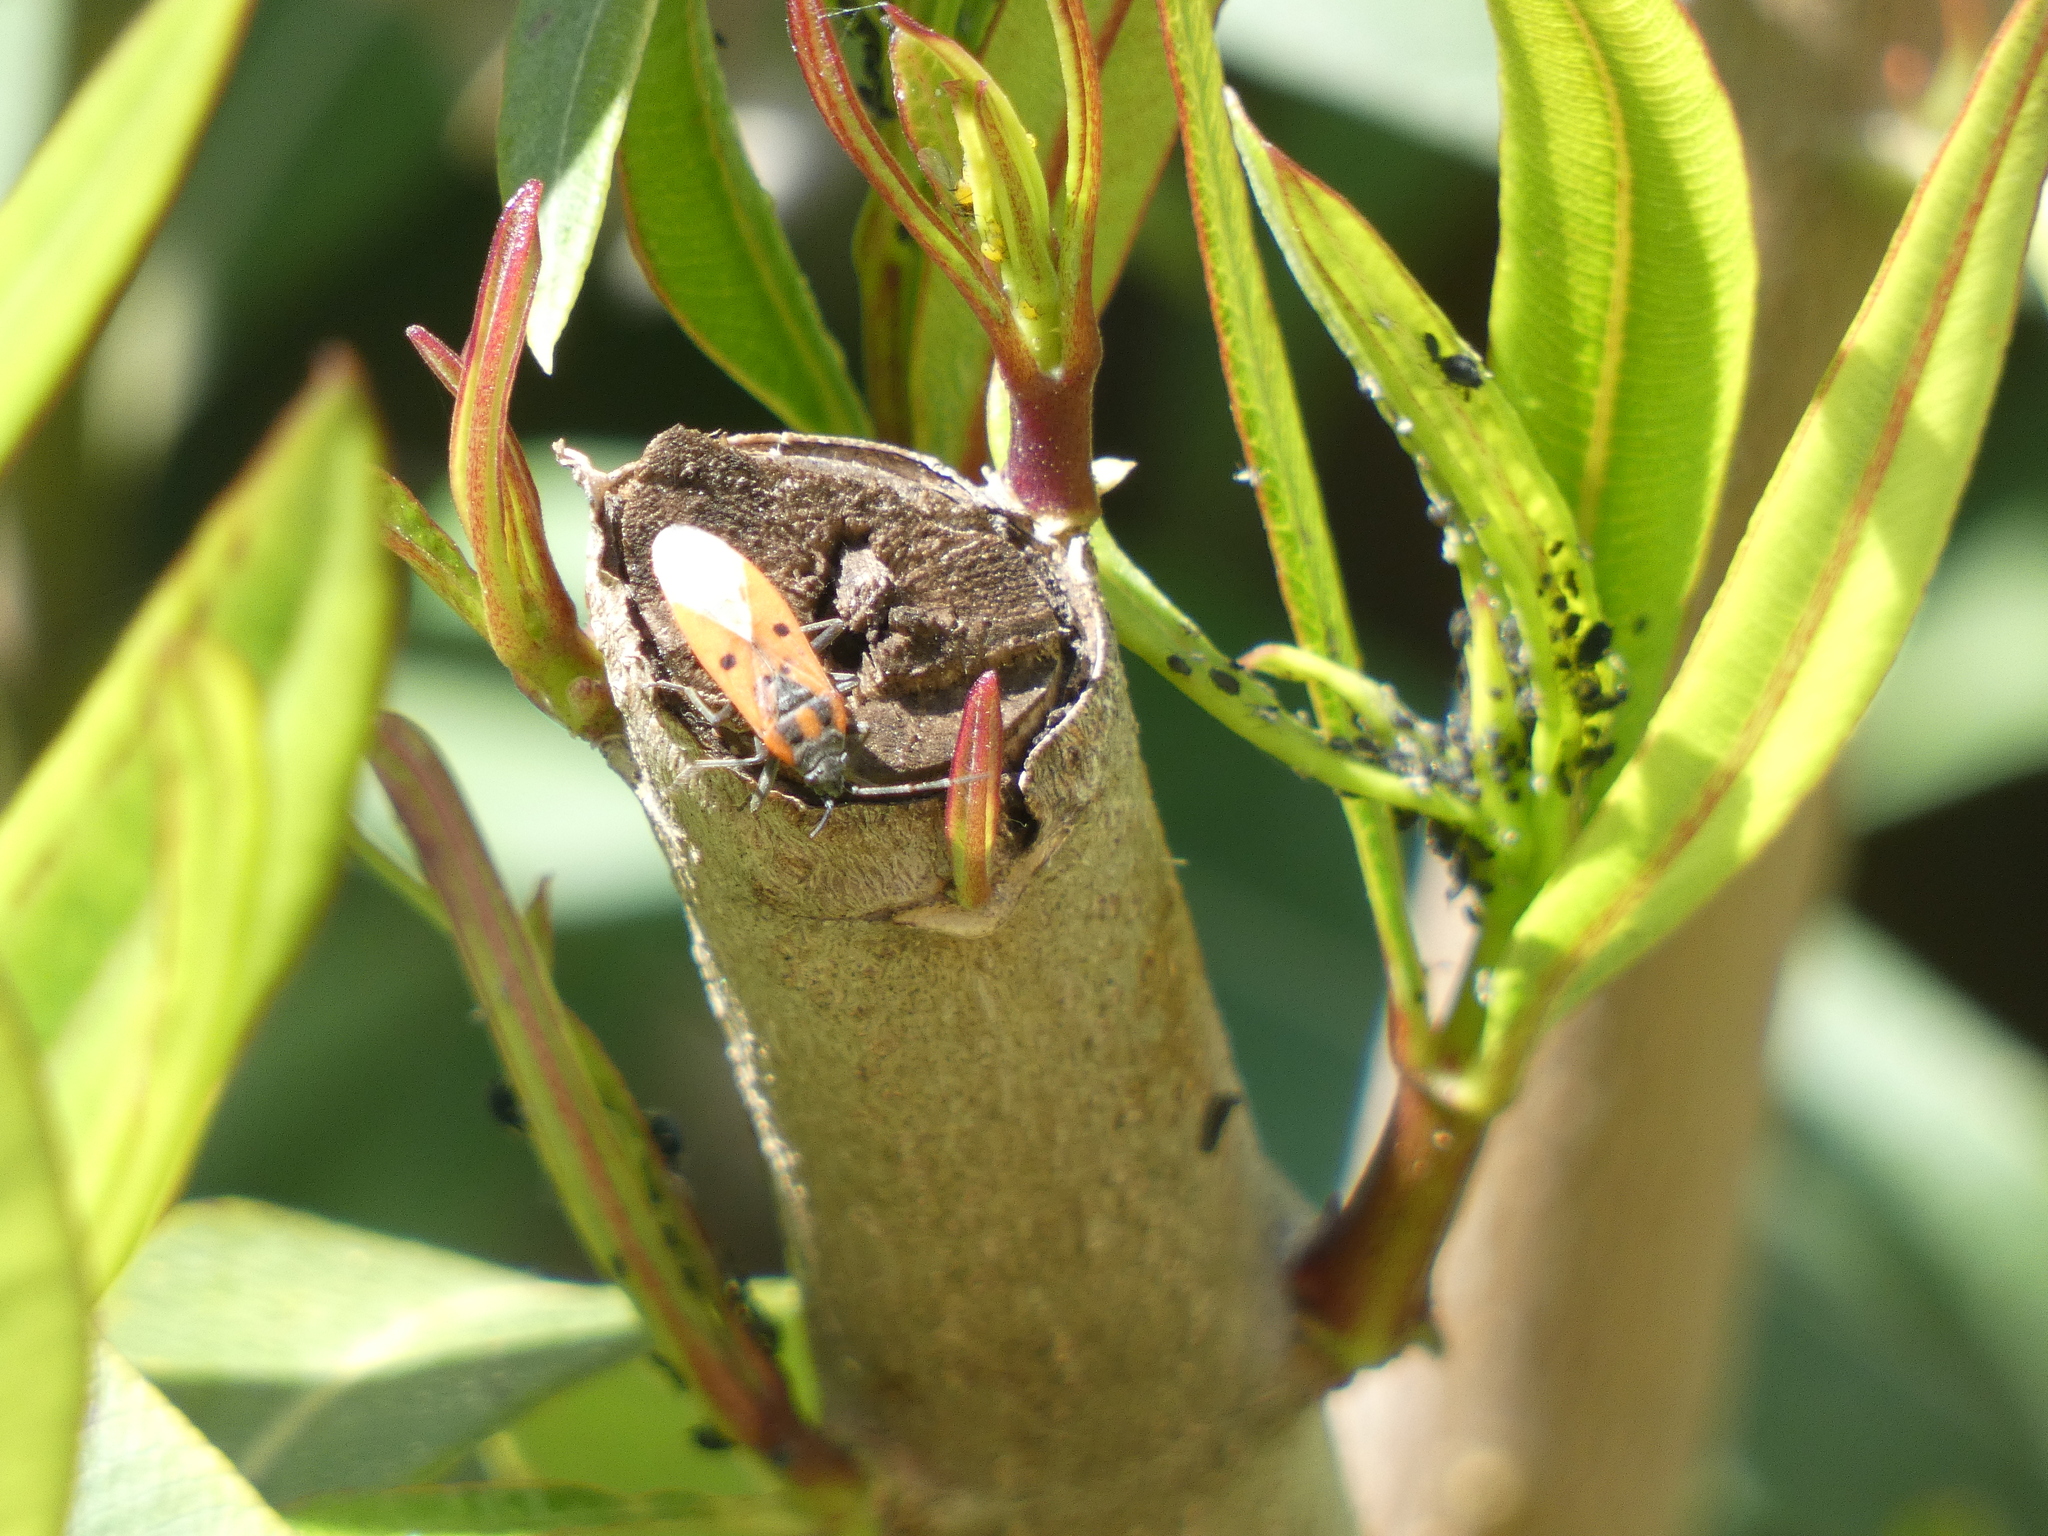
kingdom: Animalia
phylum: Arthropoda
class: Insecta
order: Hemiptera
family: Lygaeidae
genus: Lygaeus
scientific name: Lygaeus creticus
